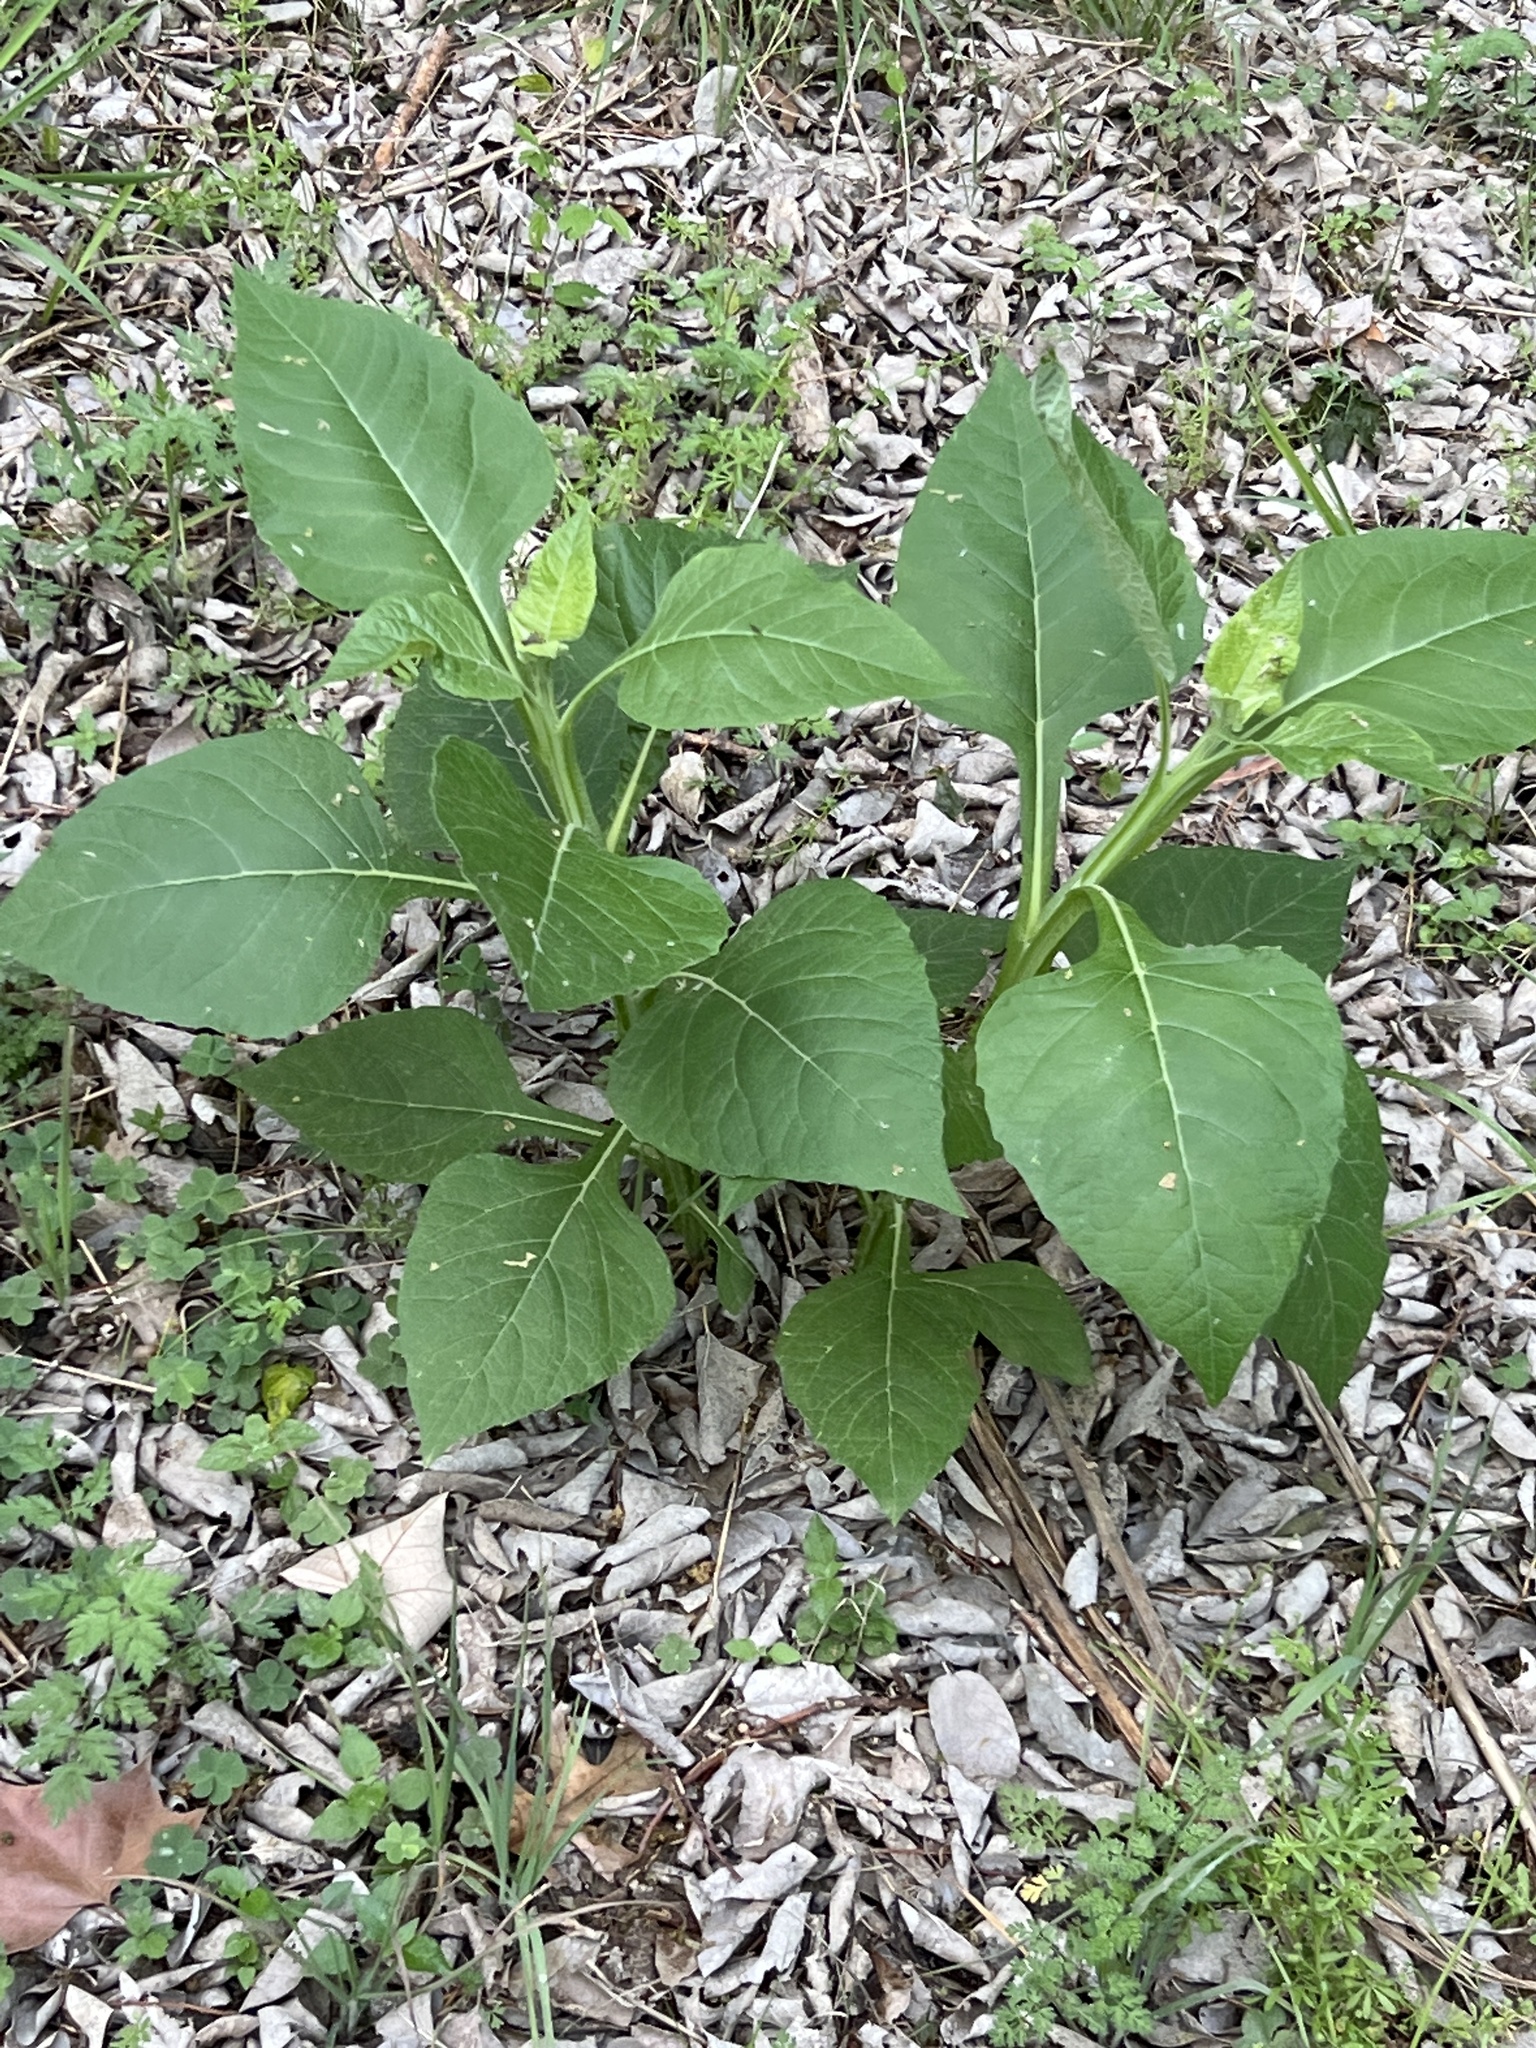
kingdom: Plantae
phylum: Tracheophyta
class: Magnoliopsida
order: Asterales
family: Asteraceae
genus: Verbesina
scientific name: Verbesina virginica
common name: Frostweed
